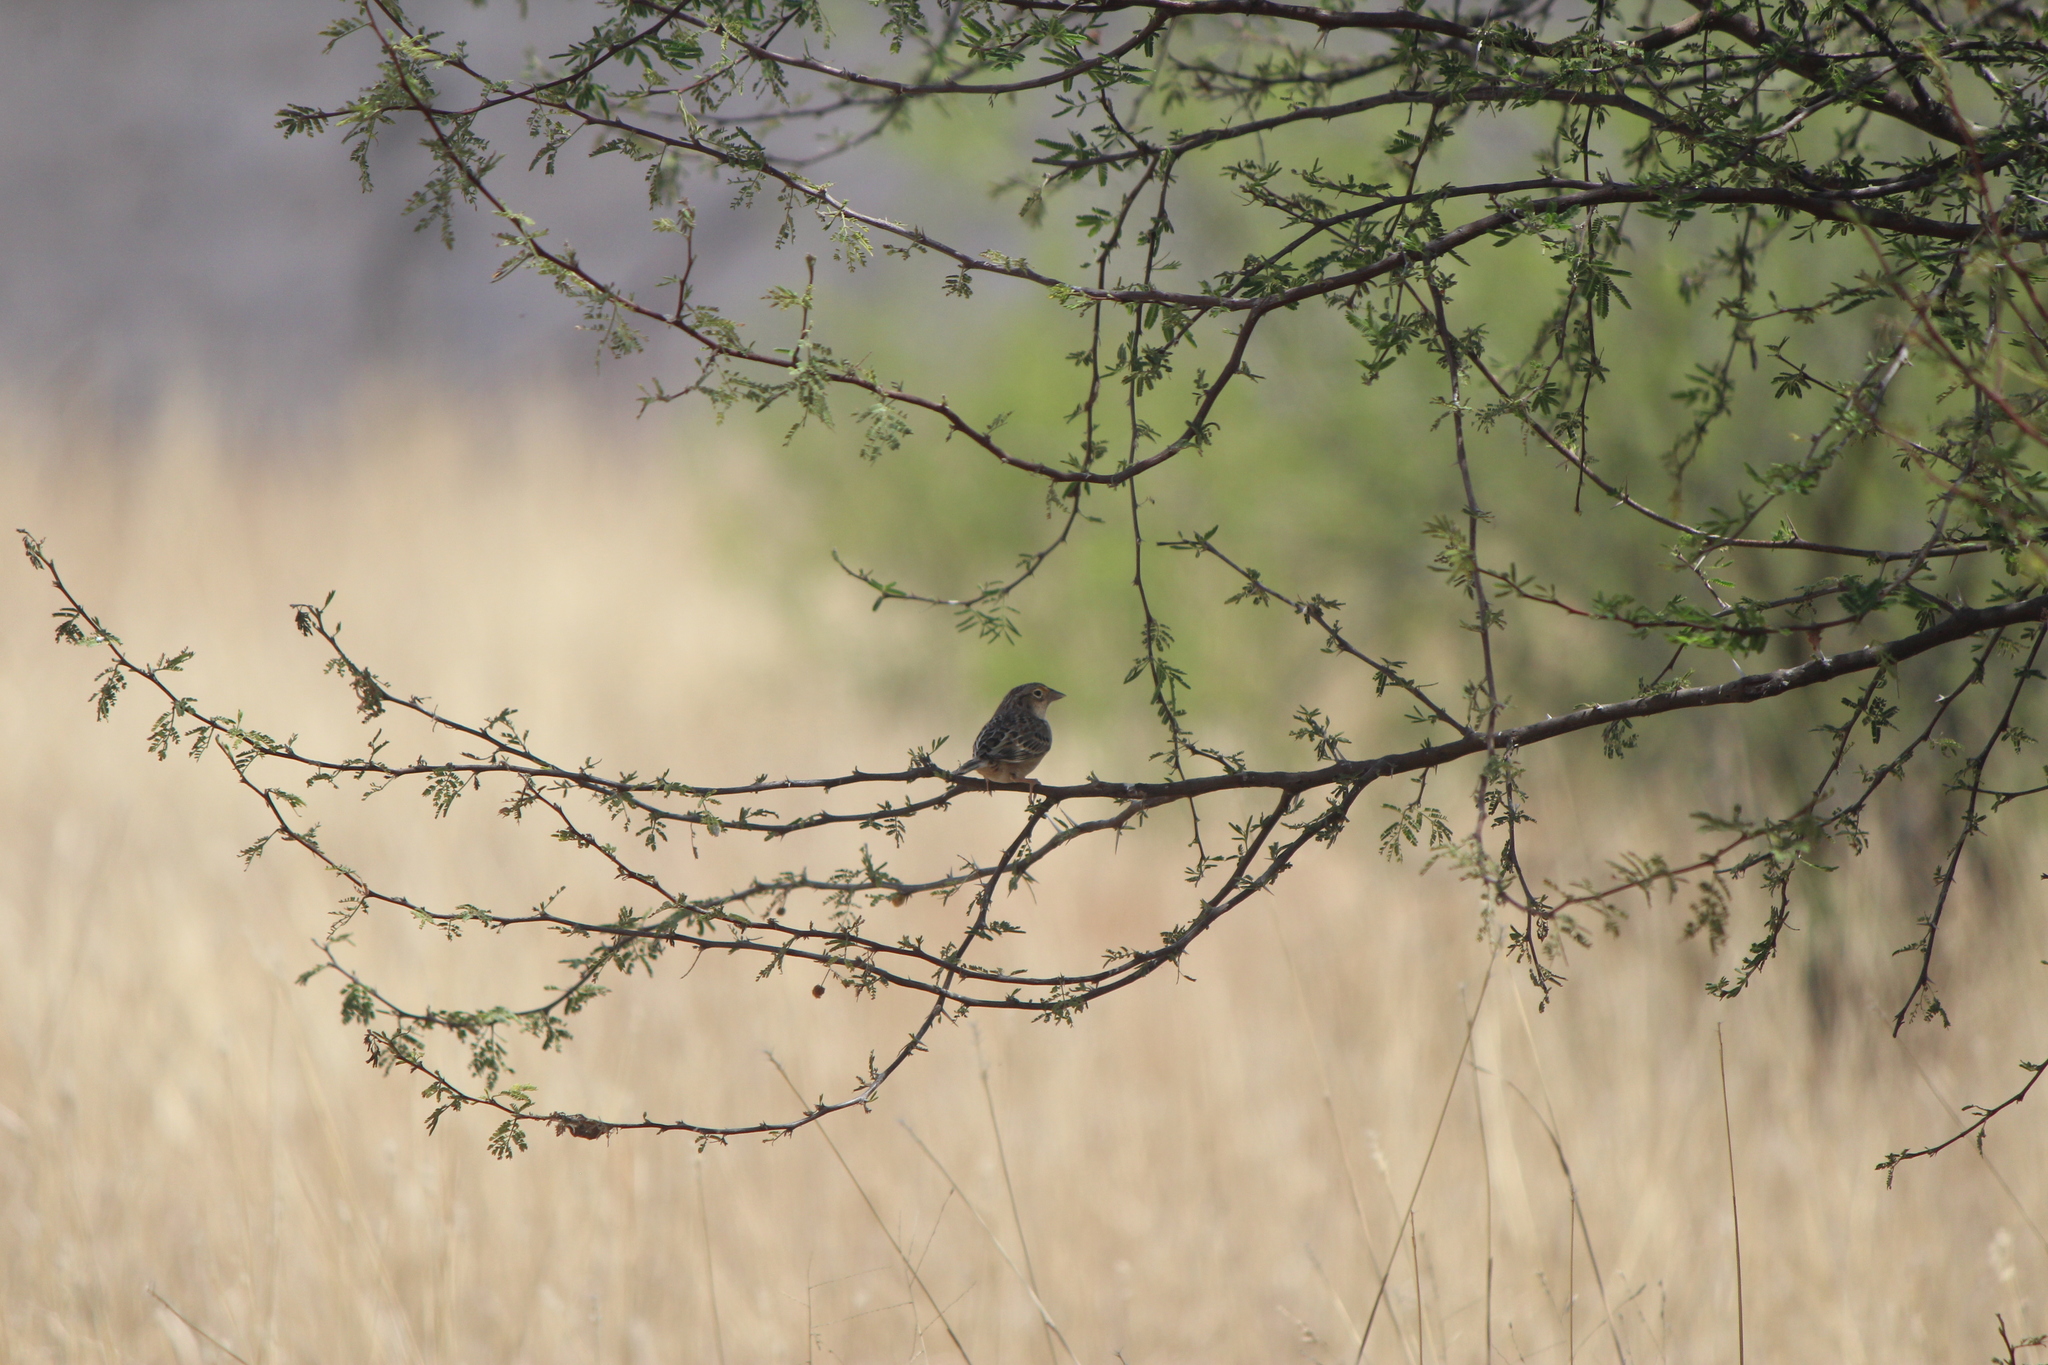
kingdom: Animalia
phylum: Chordata
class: Aves
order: Passeriformes
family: Passerellidae
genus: Ammodramus
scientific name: Ammodramus savannarum
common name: Grasshopper sparrow
